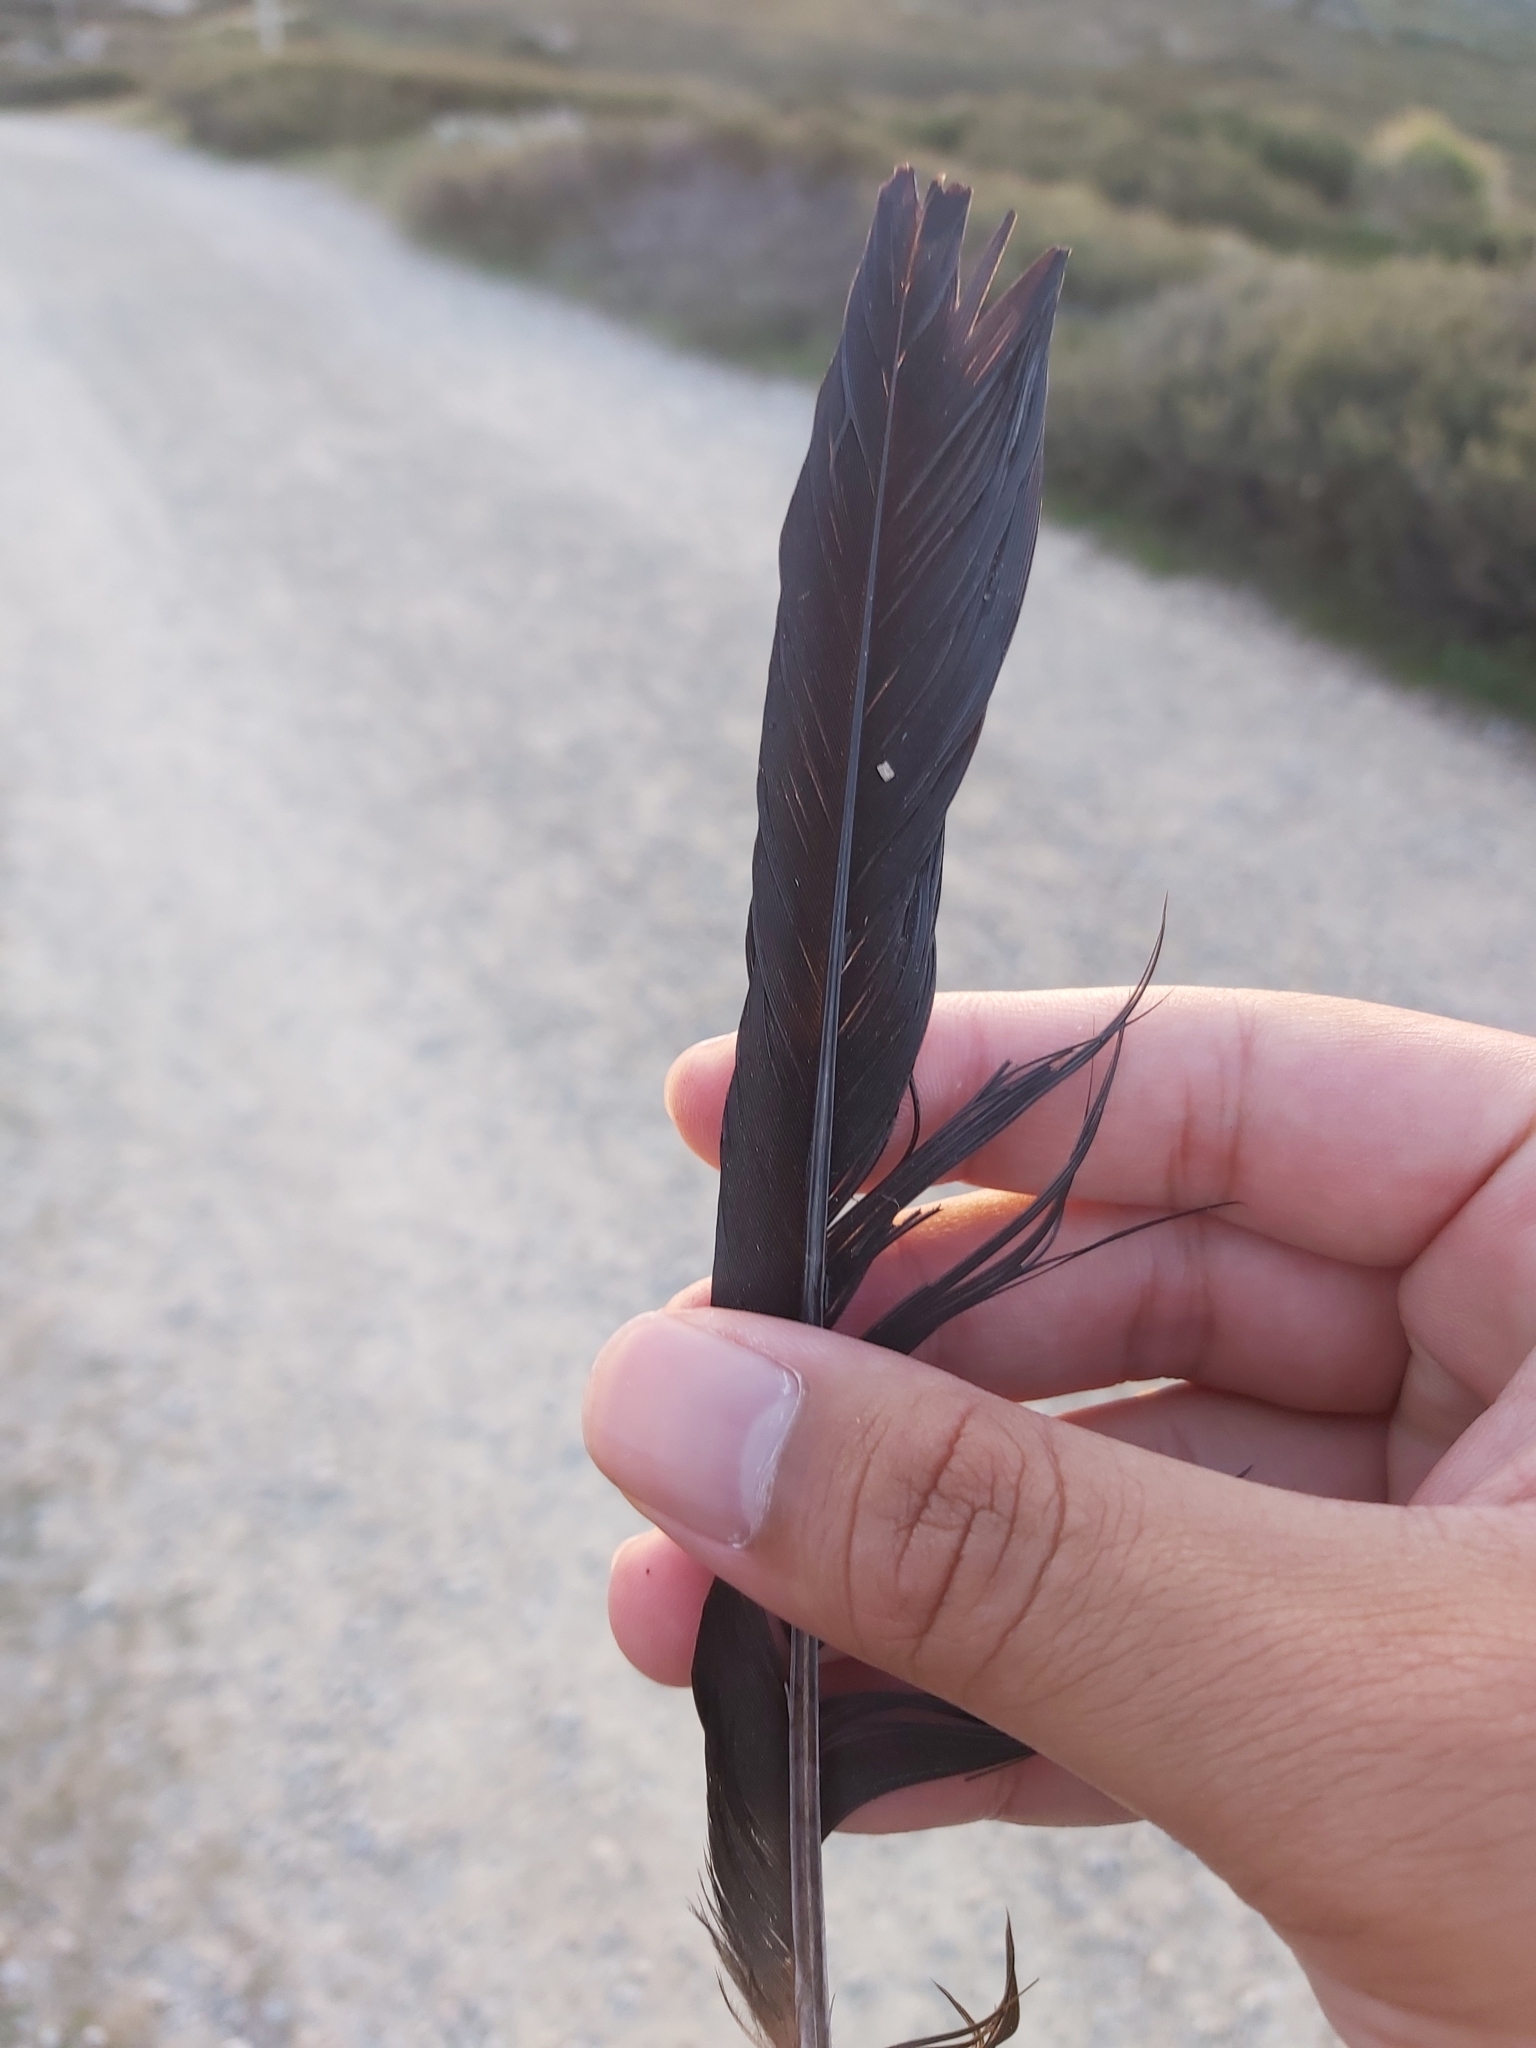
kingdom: Animalia
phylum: Chordata
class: Aves
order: Passeriformes
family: Corvidae
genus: Corvus
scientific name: Corvus
